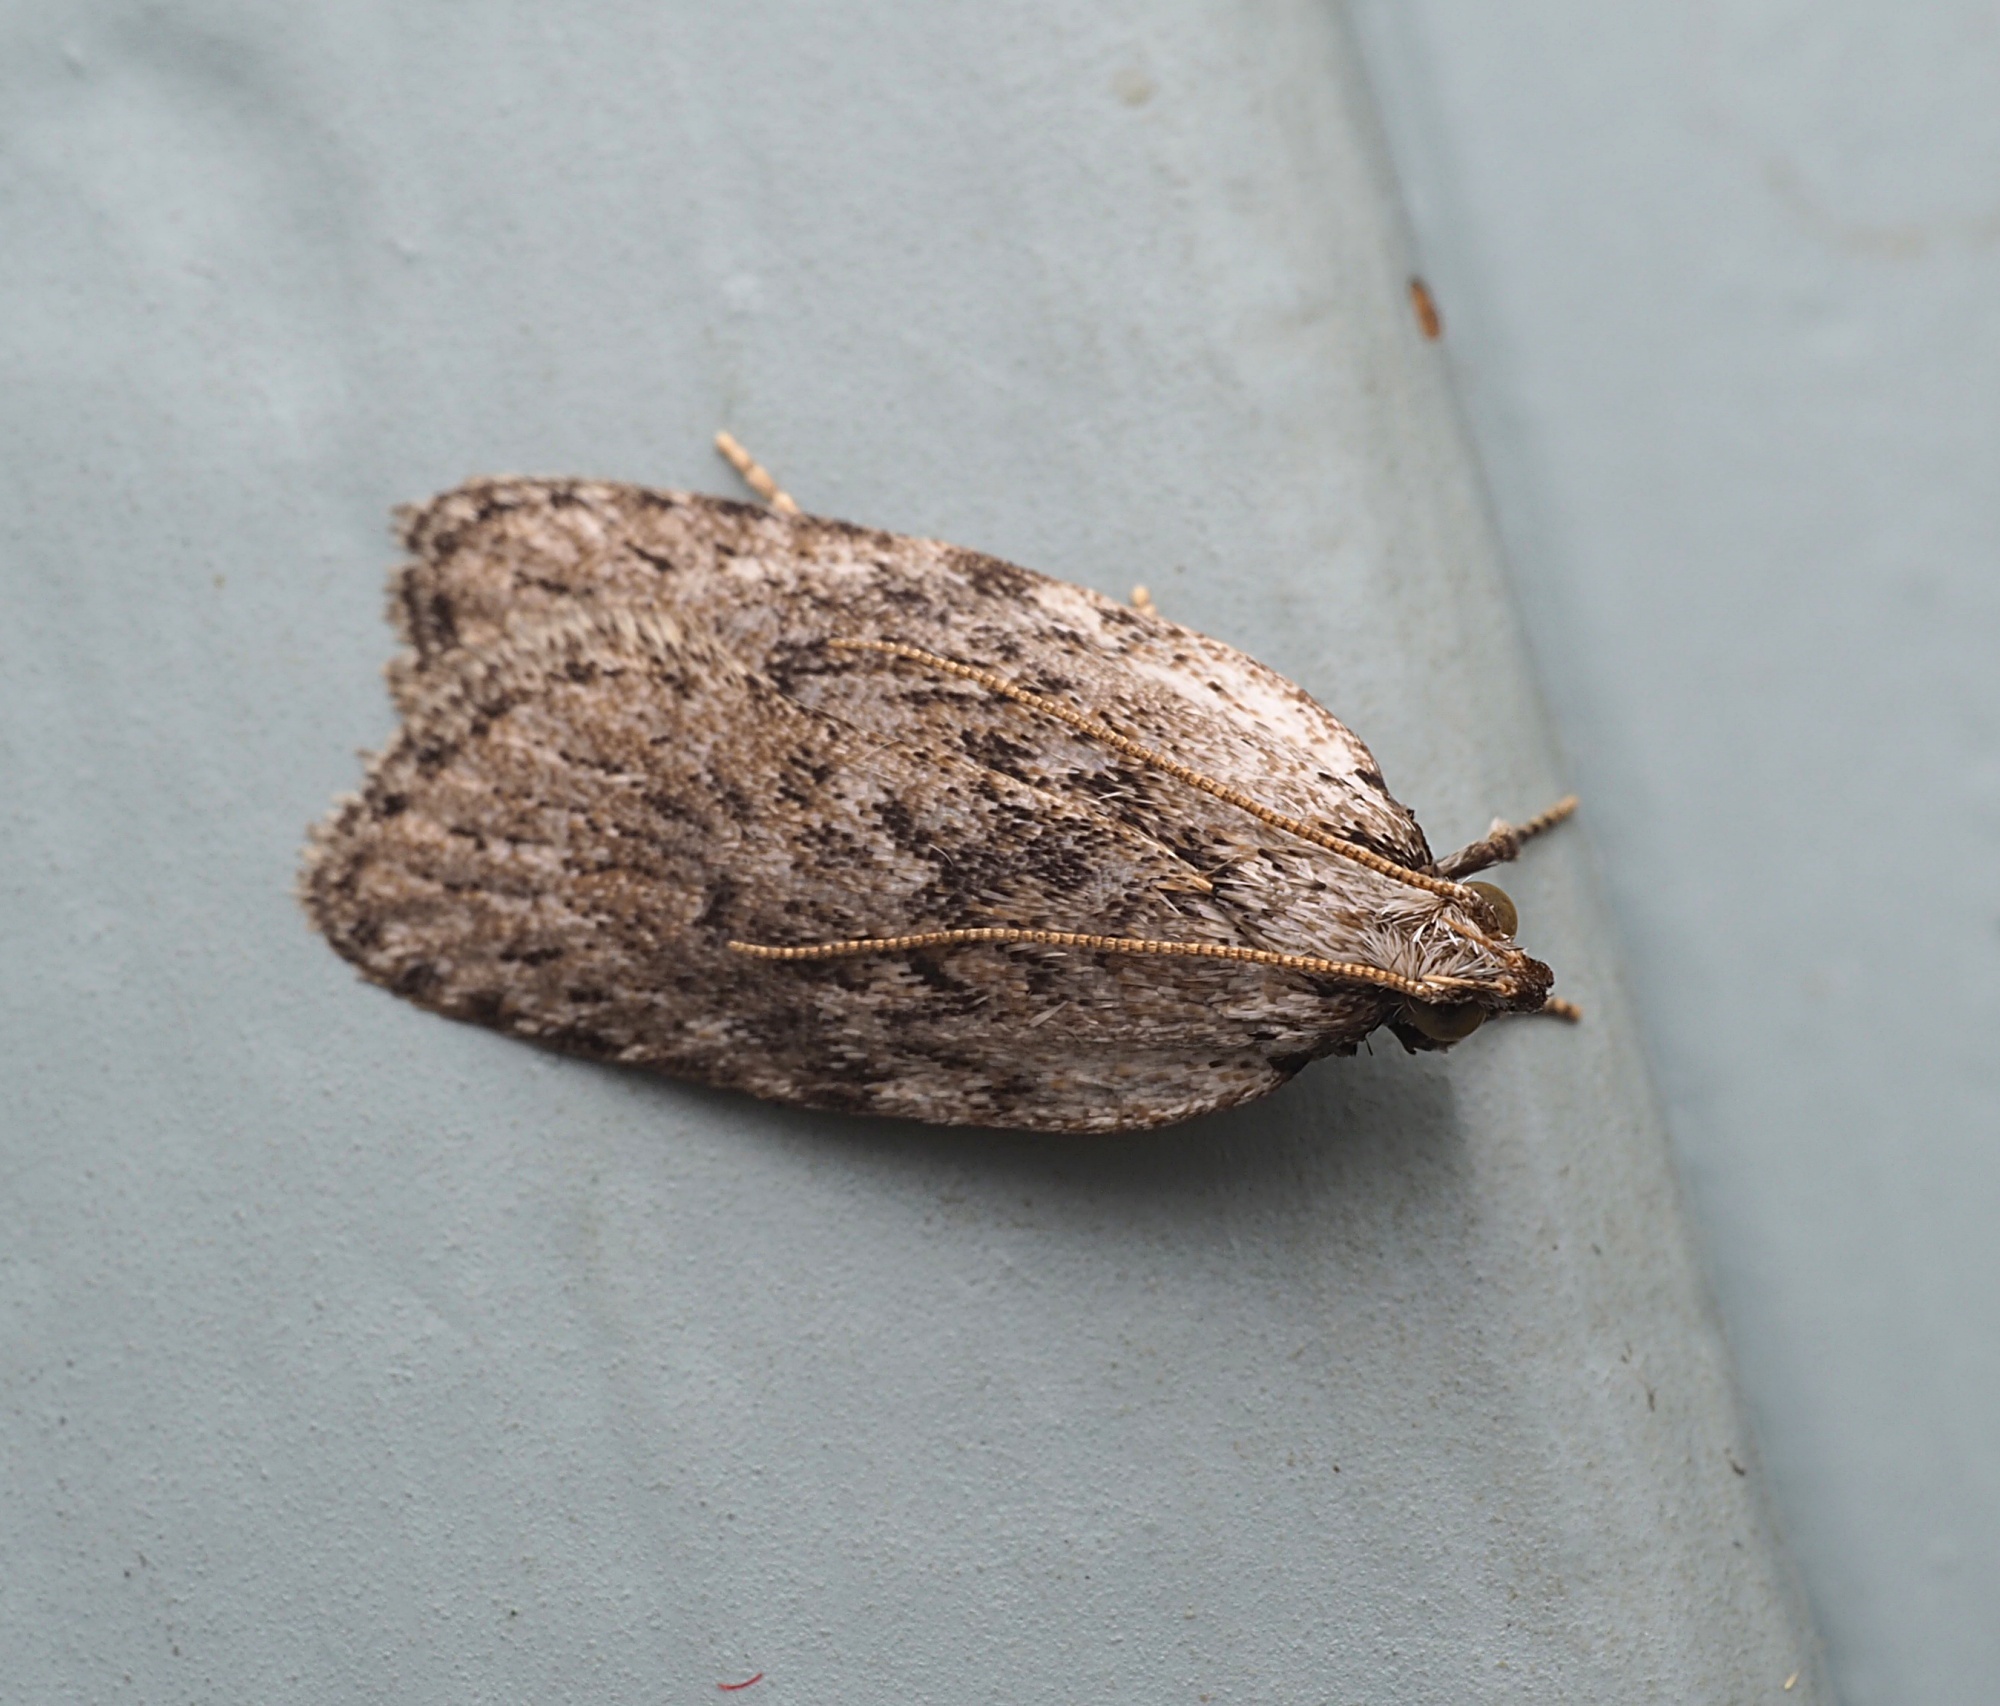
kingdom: Animalia
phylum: Arthropoda
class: Insecta
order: Lepidoptera
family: Depressariidae
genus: Phaeosaces
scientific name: Phaeosaces compsotypa
